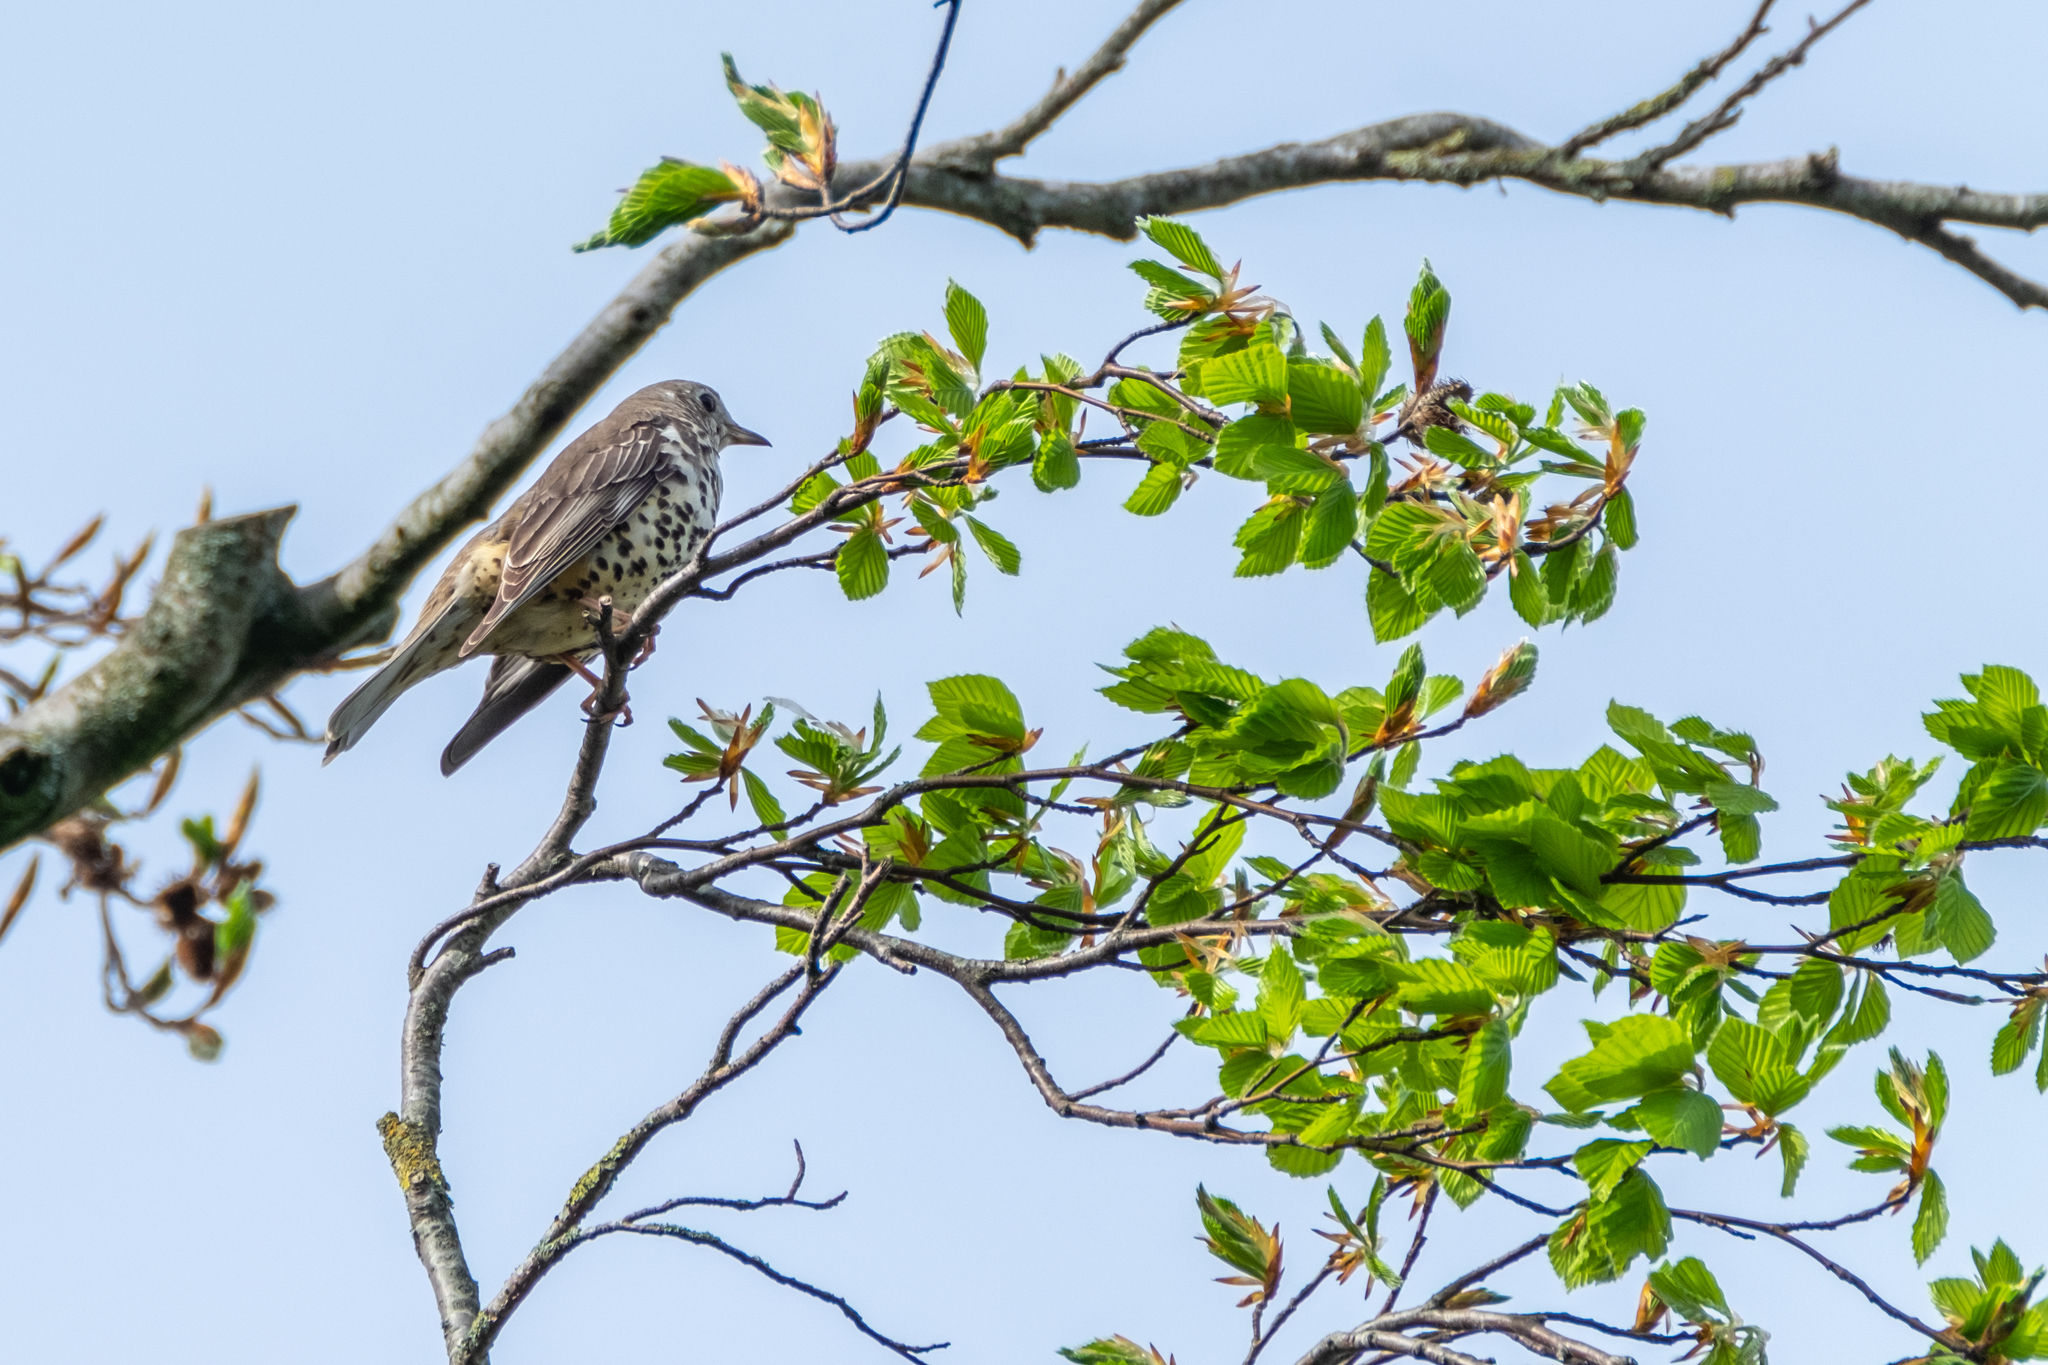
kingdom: Animalia
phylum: Chordata
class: Aves
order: Passeriformes
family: Turdidae
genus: Turdus
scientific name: Turdus viscivorus
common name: Mistle thrush
